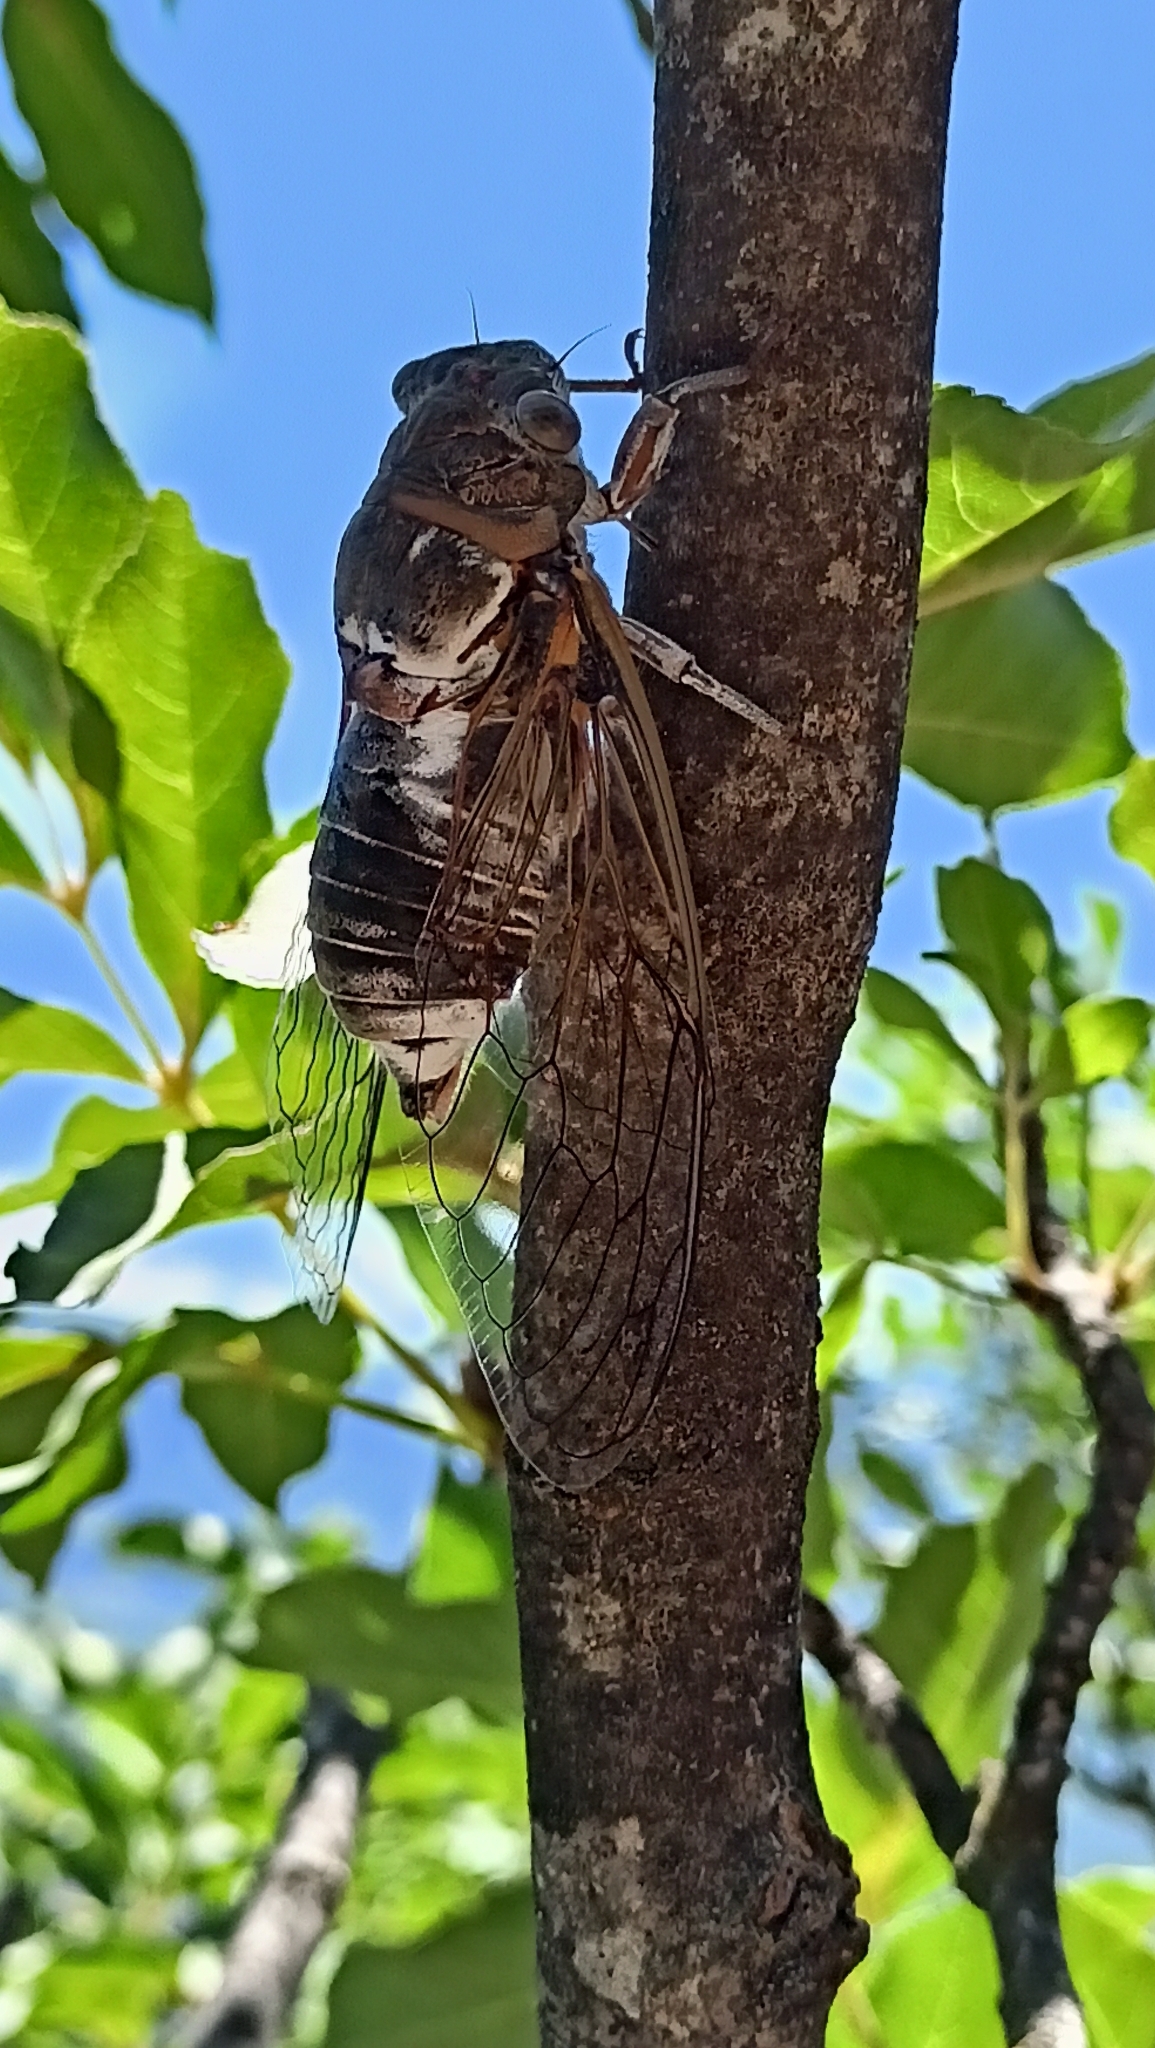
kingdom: Animalia
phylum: Arthropoda
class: Insecta
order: Hemiptera
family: Cicadidae
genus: Lyristes
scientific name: Lyristes plebejus
